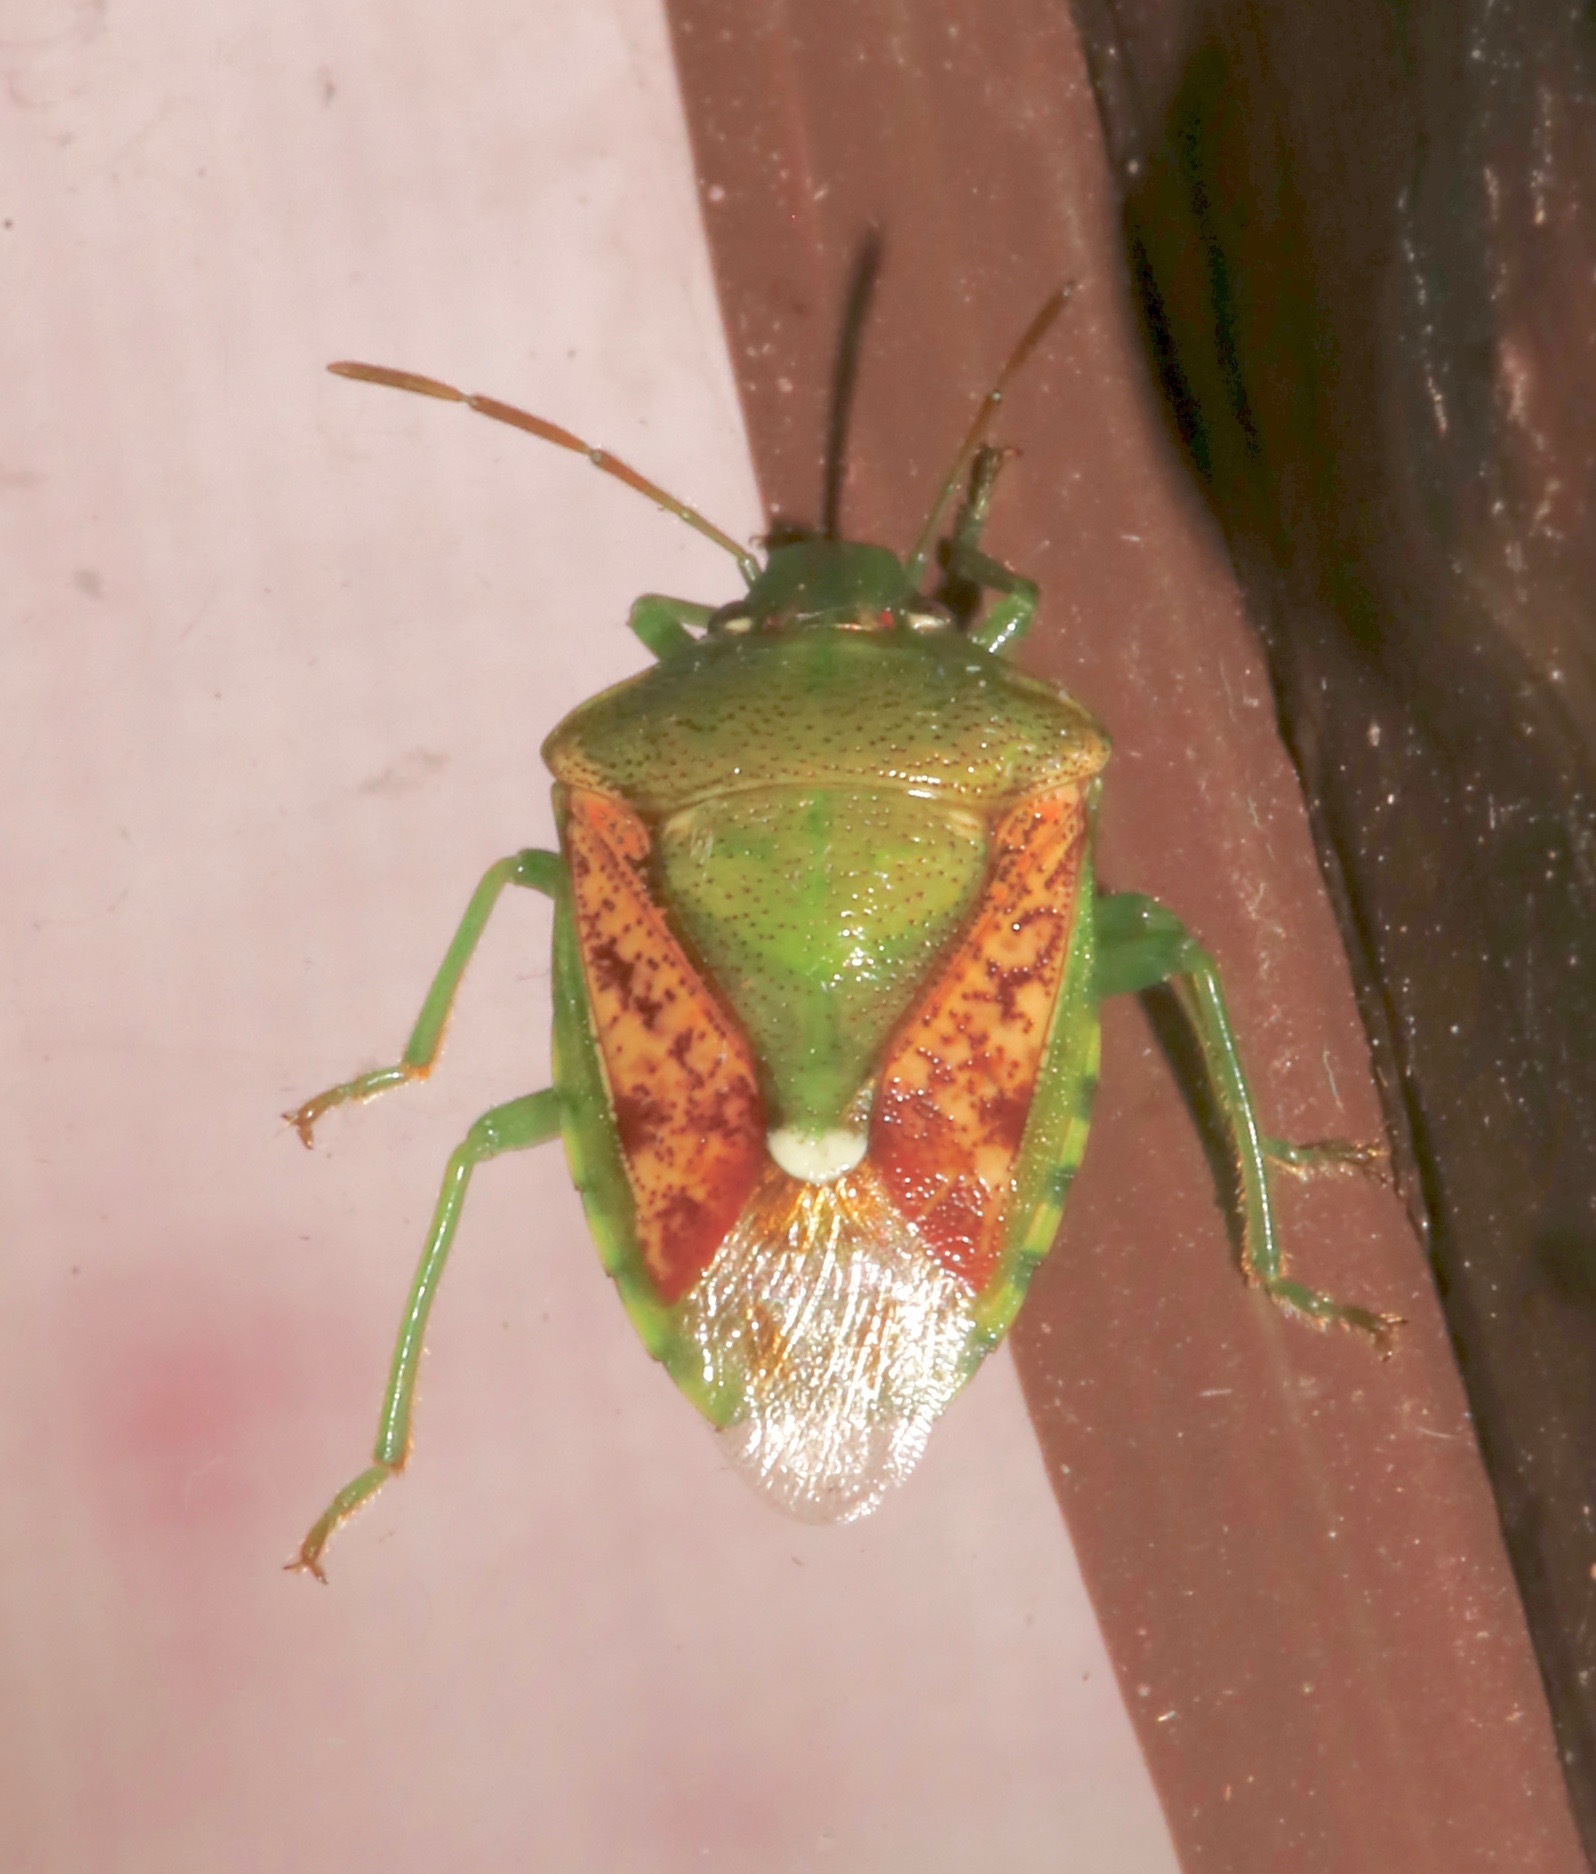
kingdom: Animalia
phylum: Arthropoda
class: Insecta
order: Hemiptera
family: Pentatomidae
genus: Banasa
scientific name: Banasa packardii
